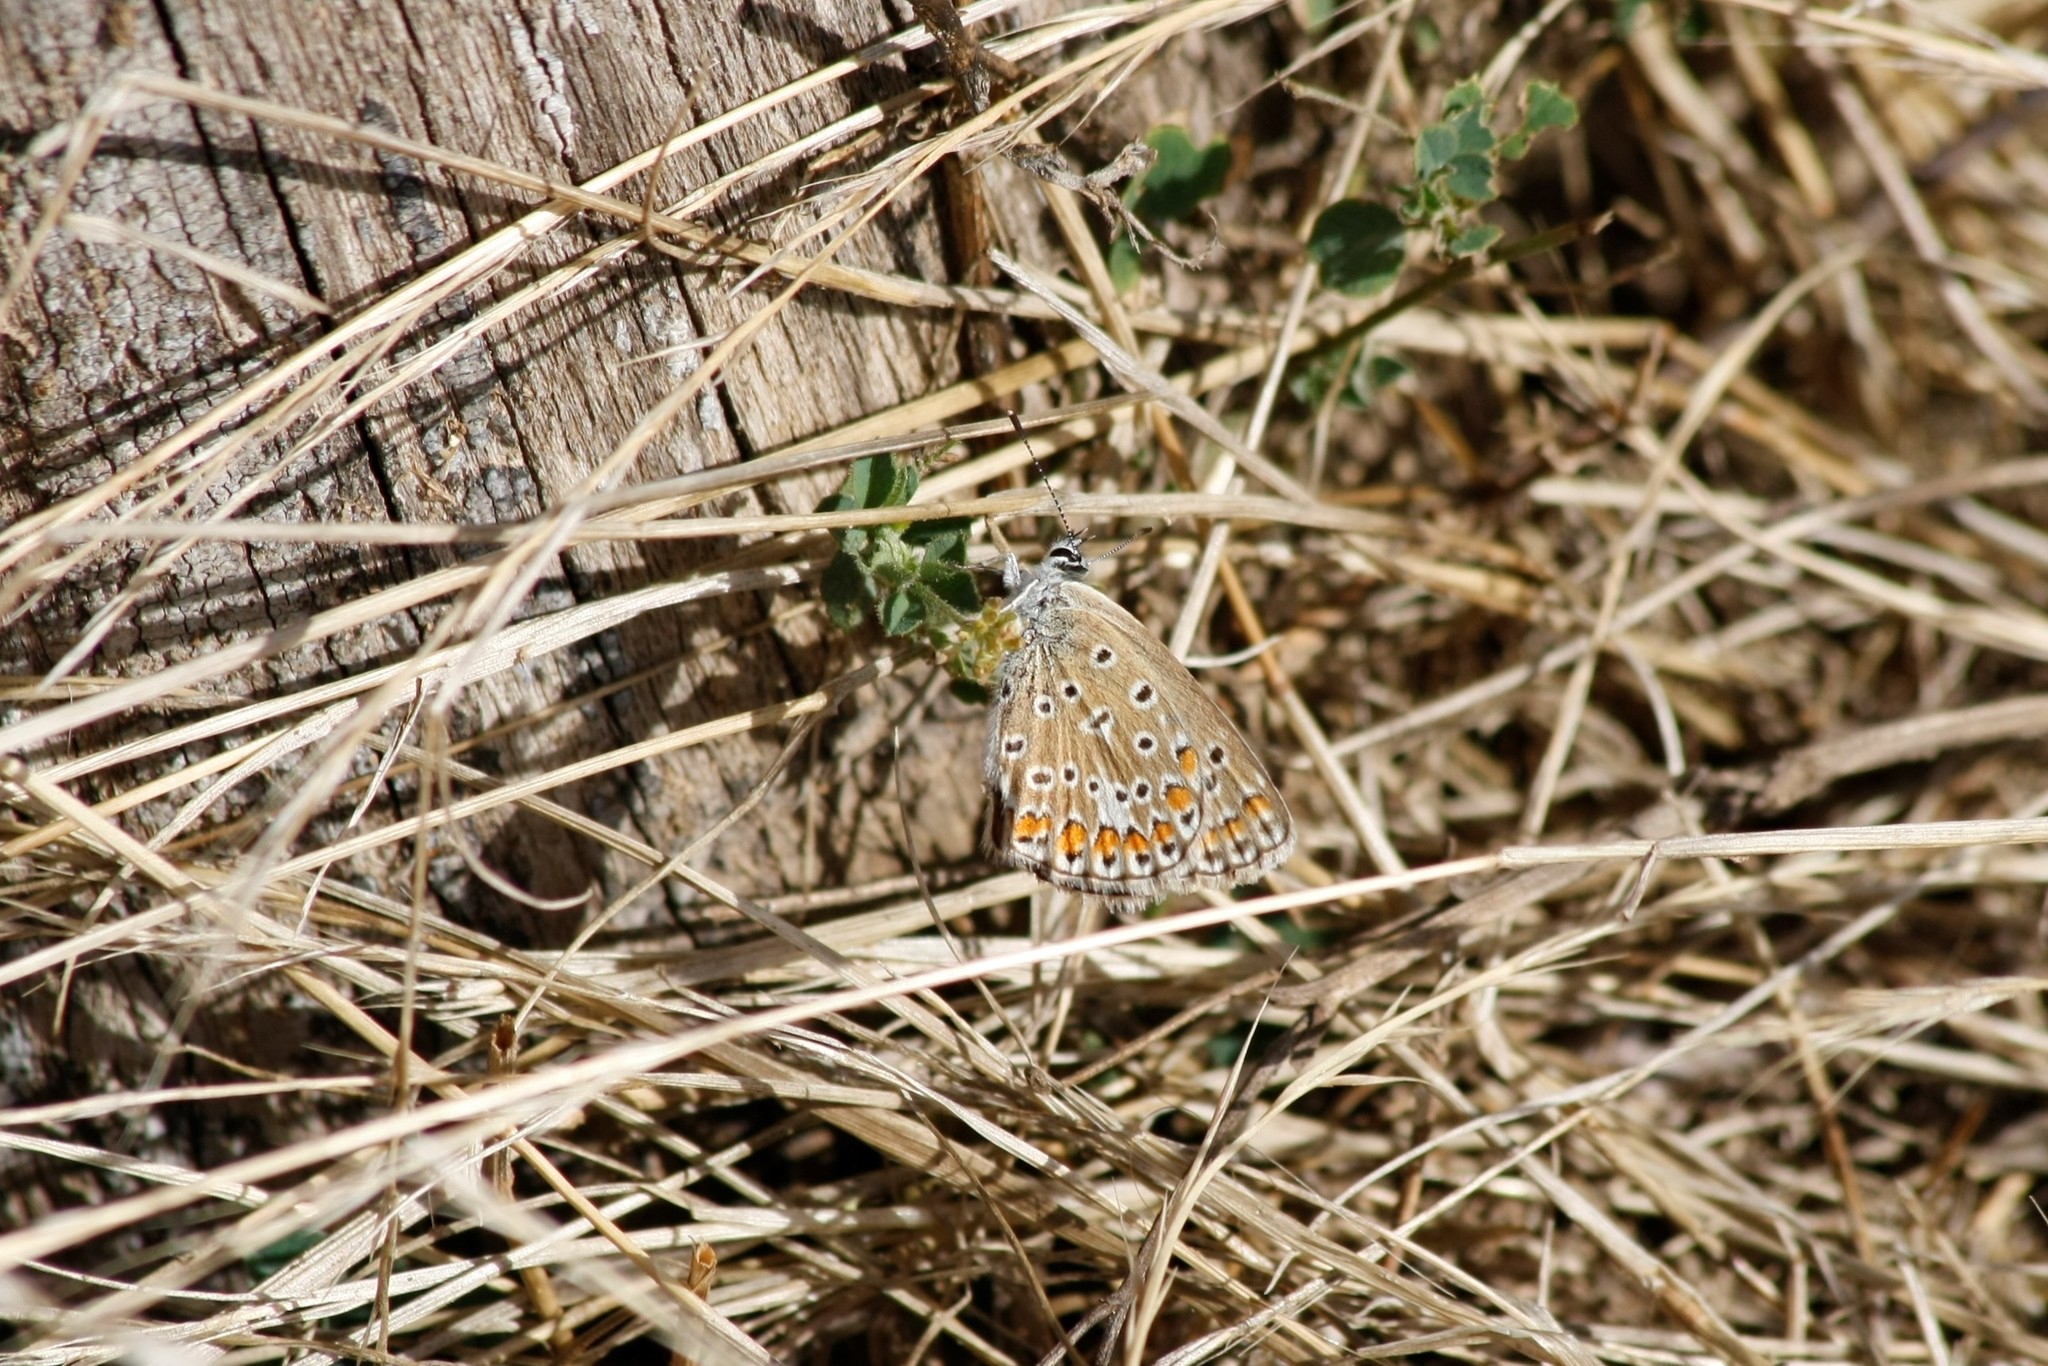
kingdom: Animalia
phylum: Arthropoda
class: Insecta
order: Lepidoptera
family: Lycaenidae
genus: Polyommatus
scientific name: Polyommatus icarus
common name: Common blue
